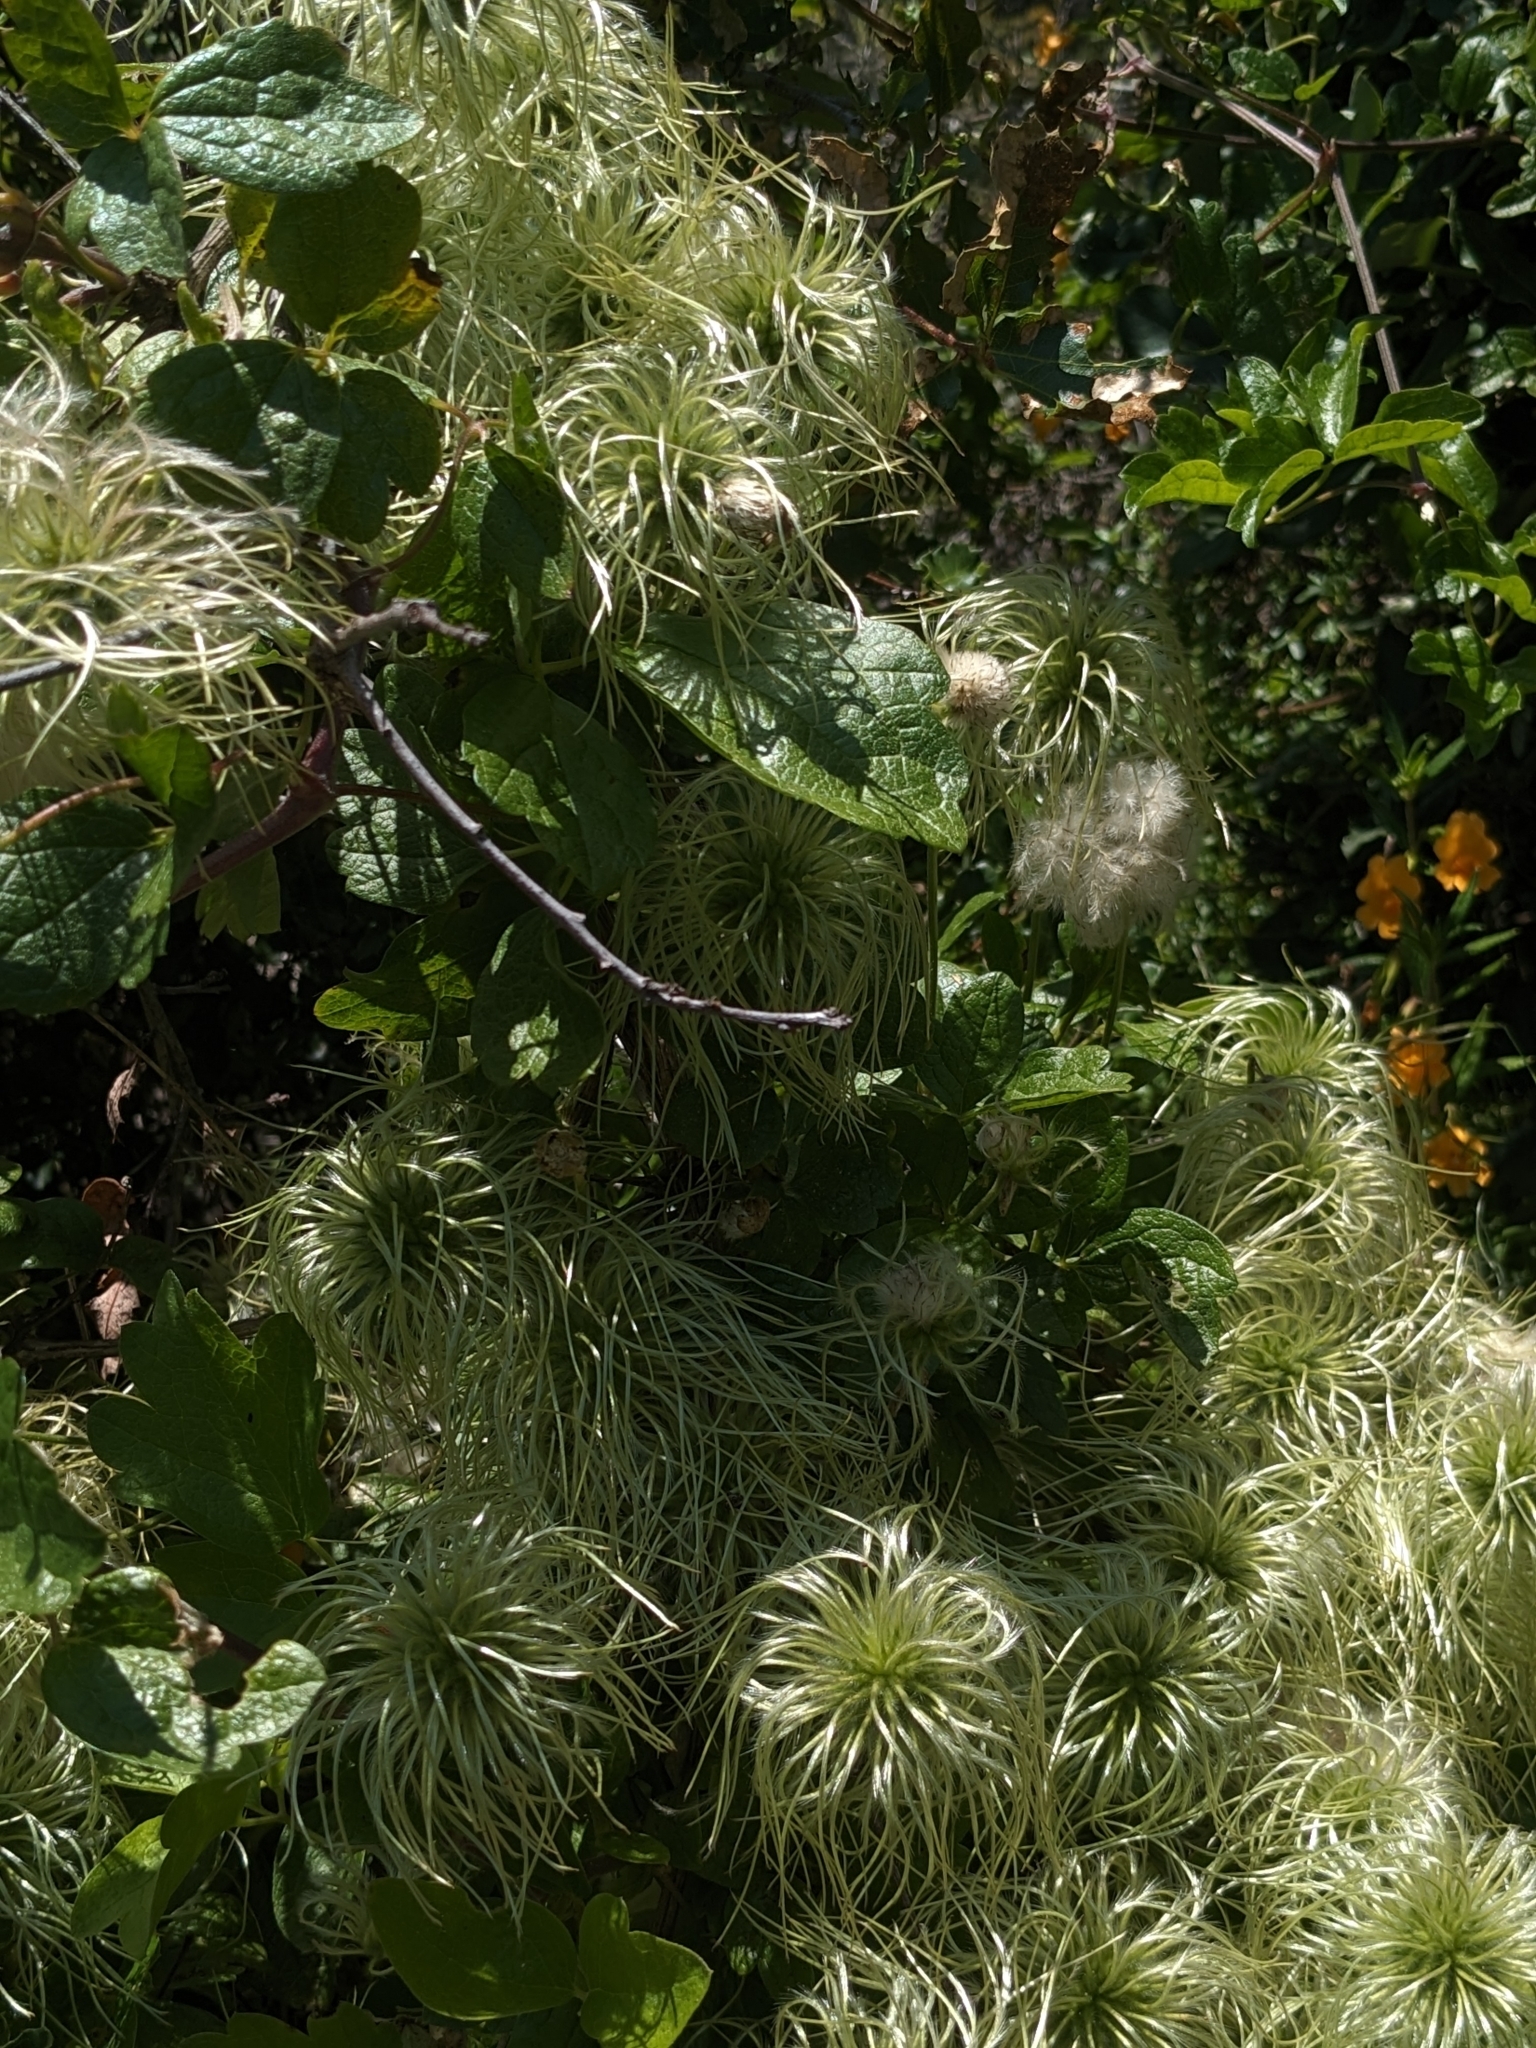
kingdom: Plantae
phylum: Tracheophyta
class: Magnoliopsida
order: Ranunculales
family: Ranunculaceae
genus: Clematis
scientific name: Clematis lasiantha
